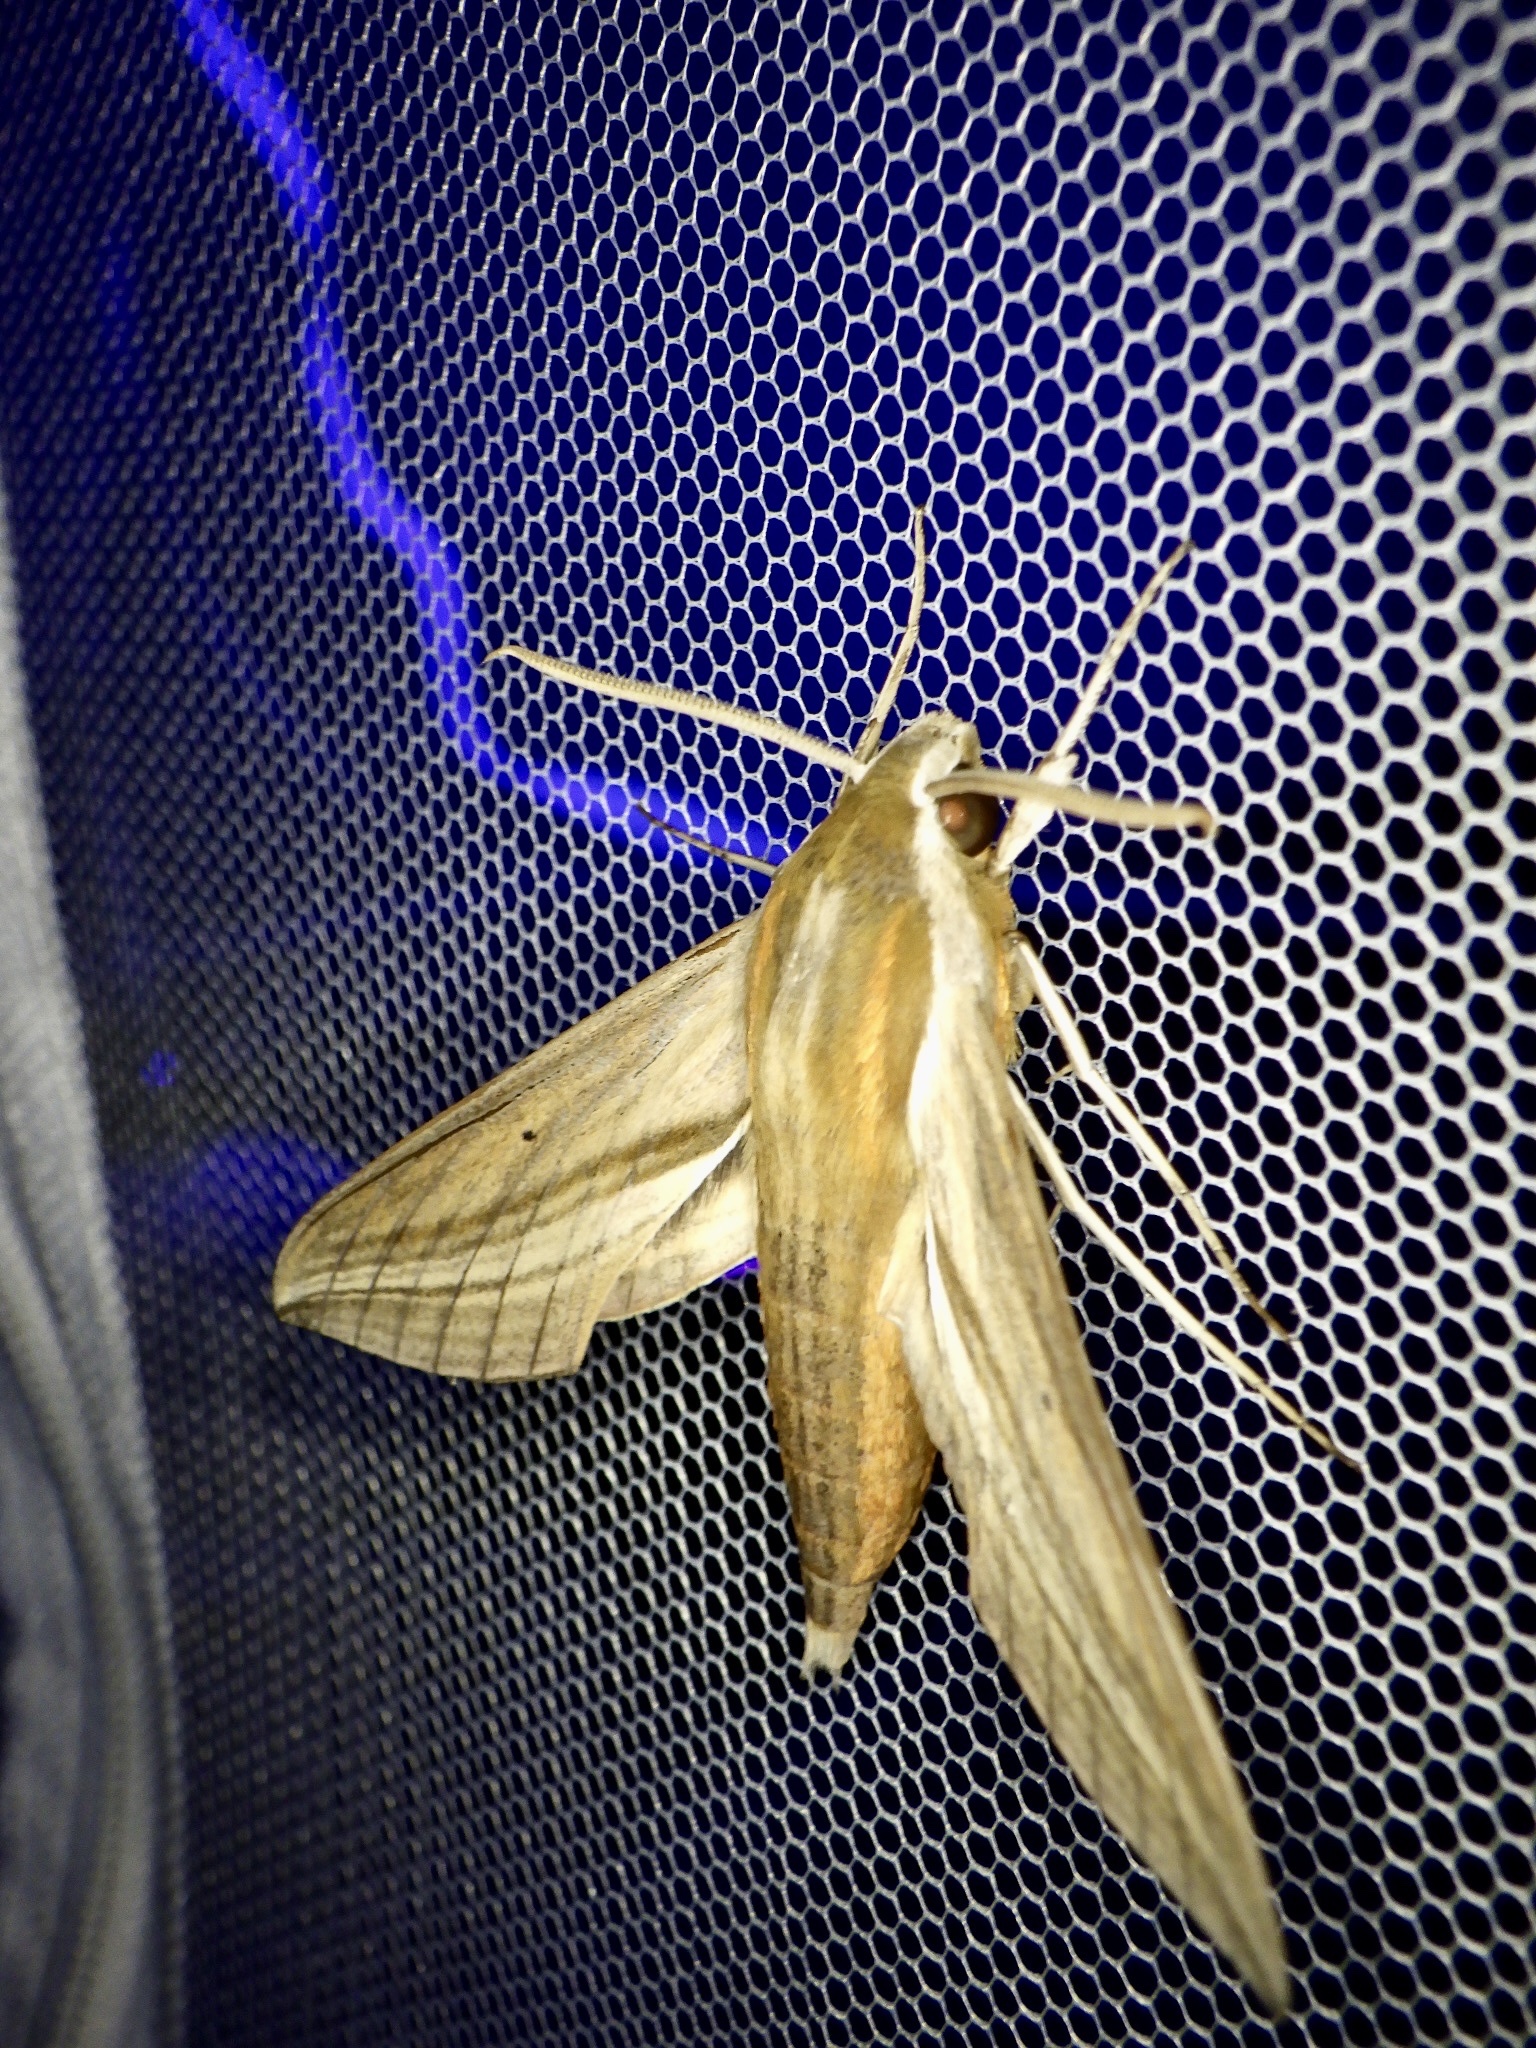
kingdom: Animalia
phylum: Arthropoda
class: Insecta
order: Lepidoptera
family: Sphingidae
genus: Theretra
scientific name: Theretra japonica
